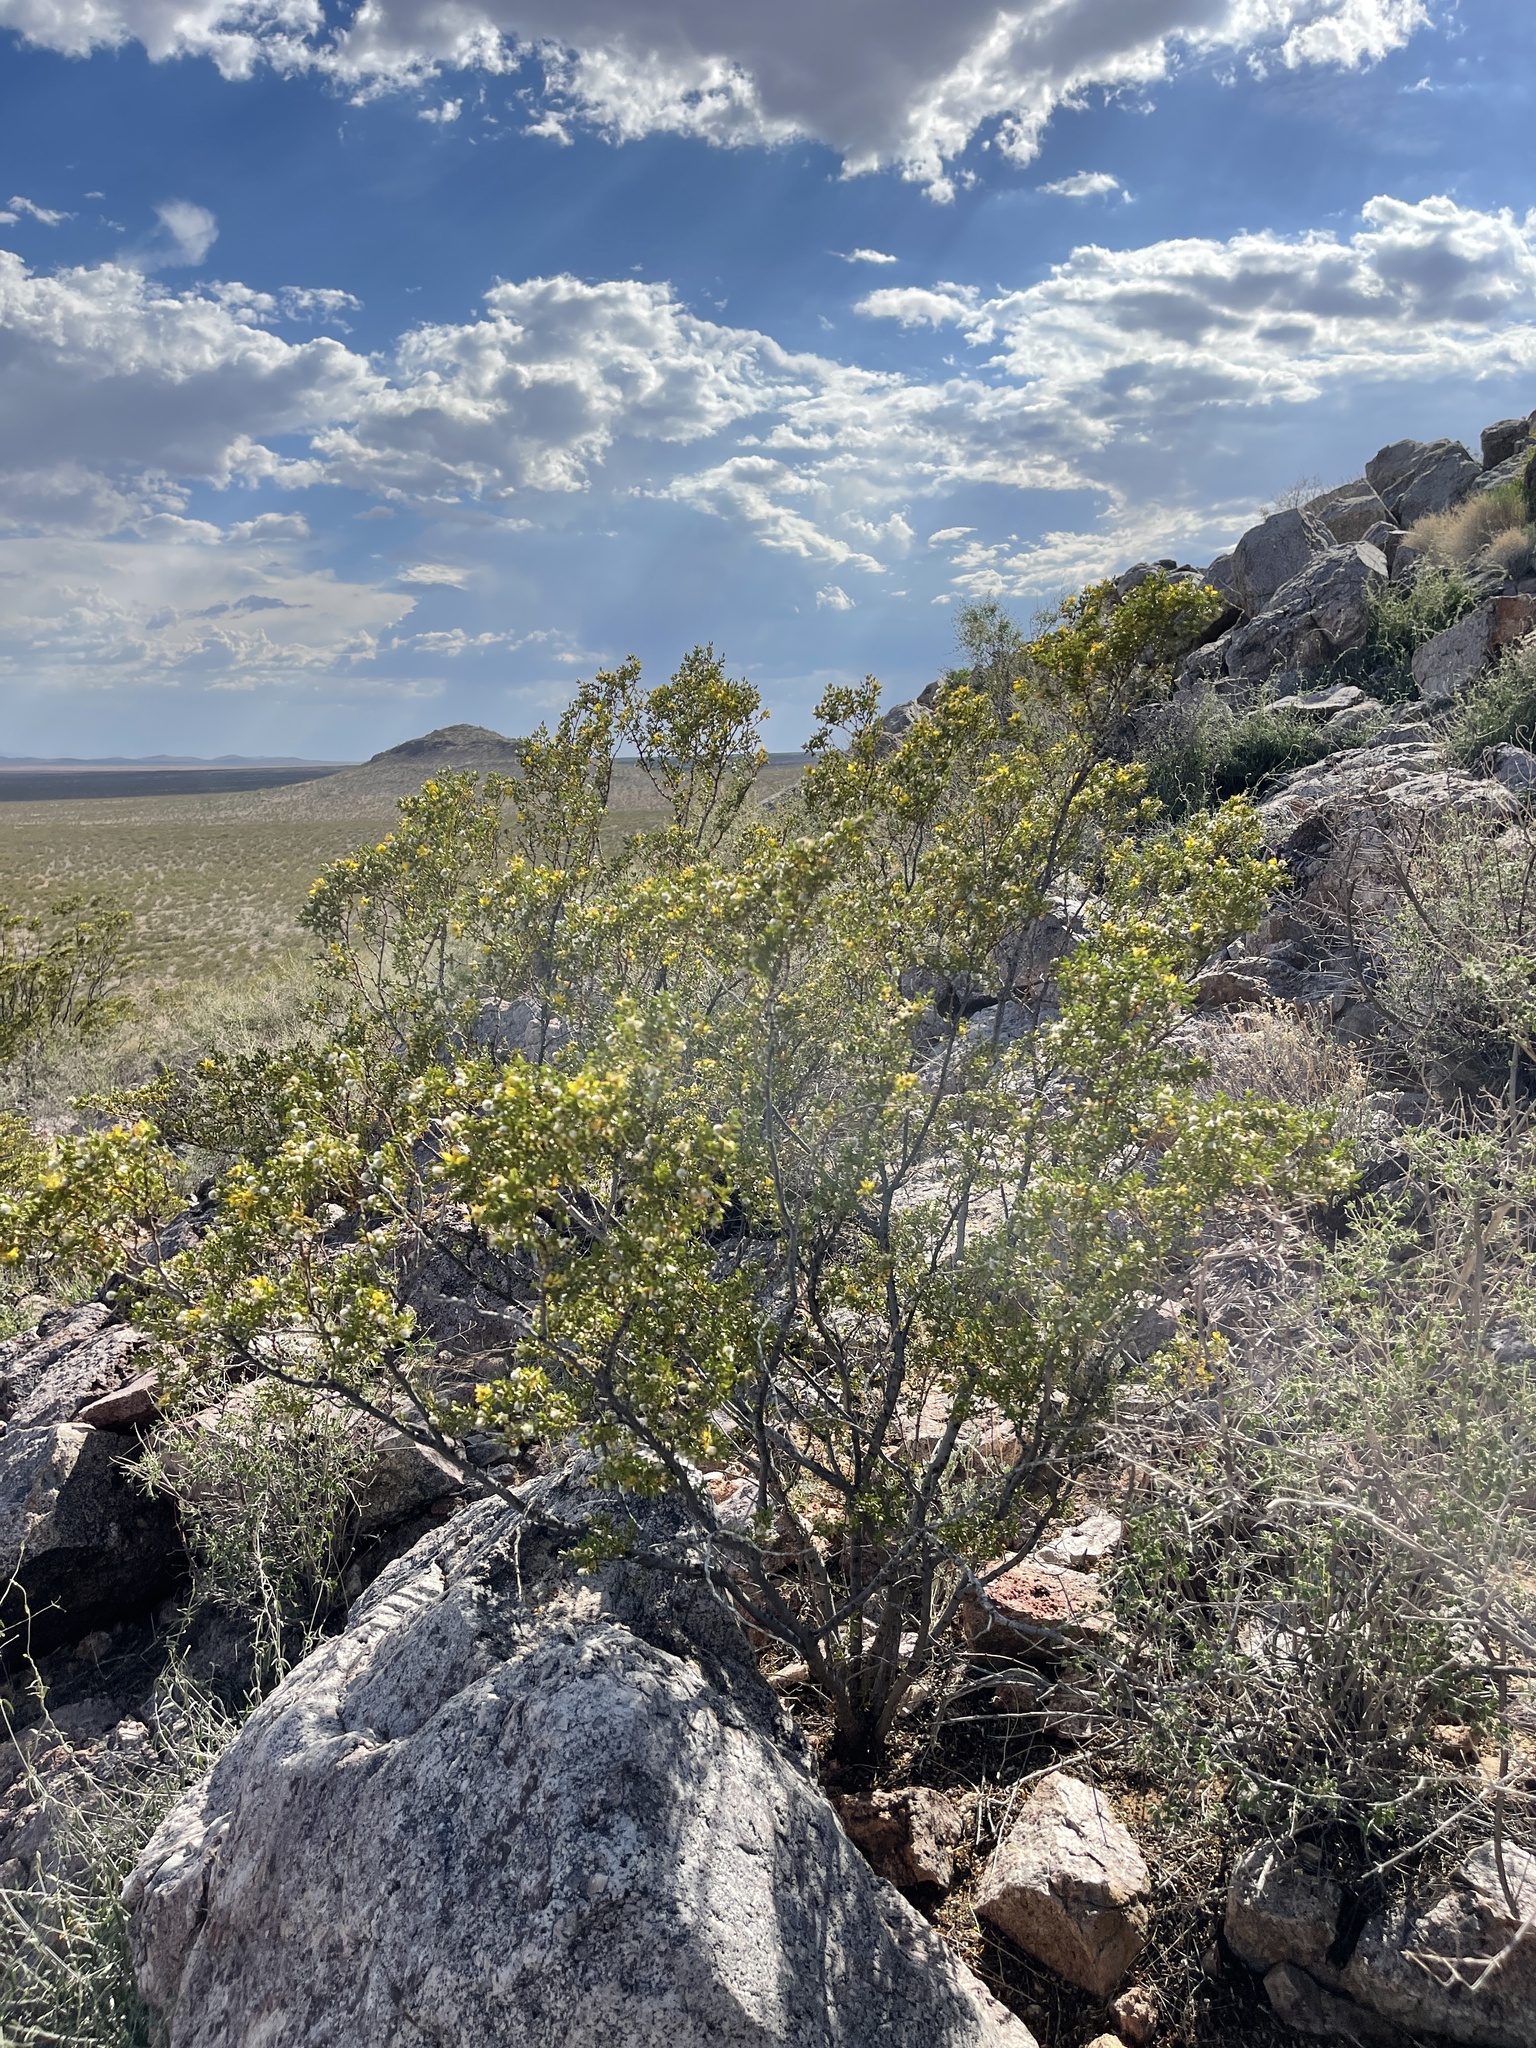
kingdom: Plantae
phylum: Tracheophyta
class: Magnoliopsida
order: Zygophyllales
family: Zygophyllaceae
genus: Larrea
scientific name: Larrea tridentata
